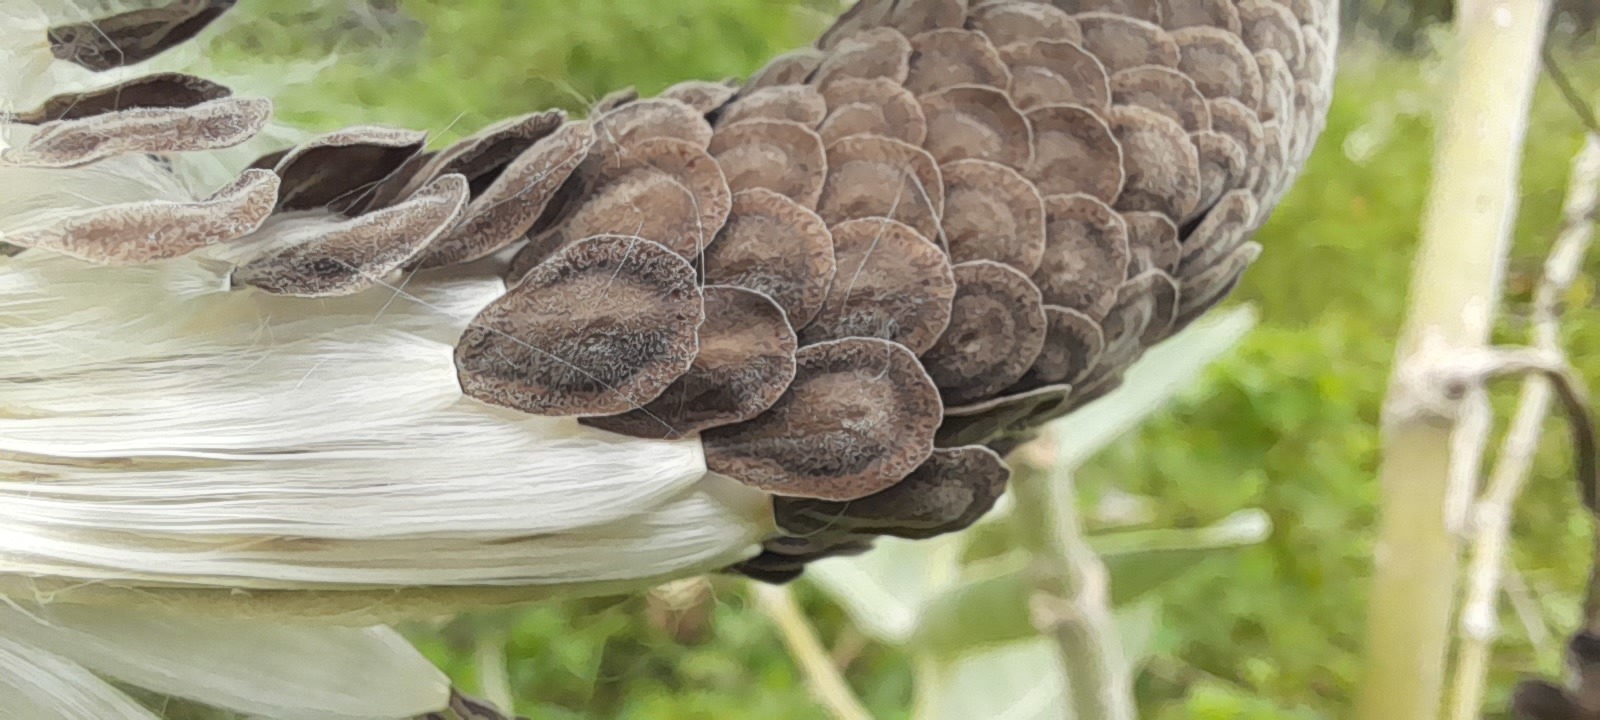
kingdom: Plantae
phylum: Tracheophyta
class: Magnoliopsida
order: Gentianales
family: Apocynaceae
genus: Calotropis
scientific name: Calotropis gigantea
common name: Crown flower
